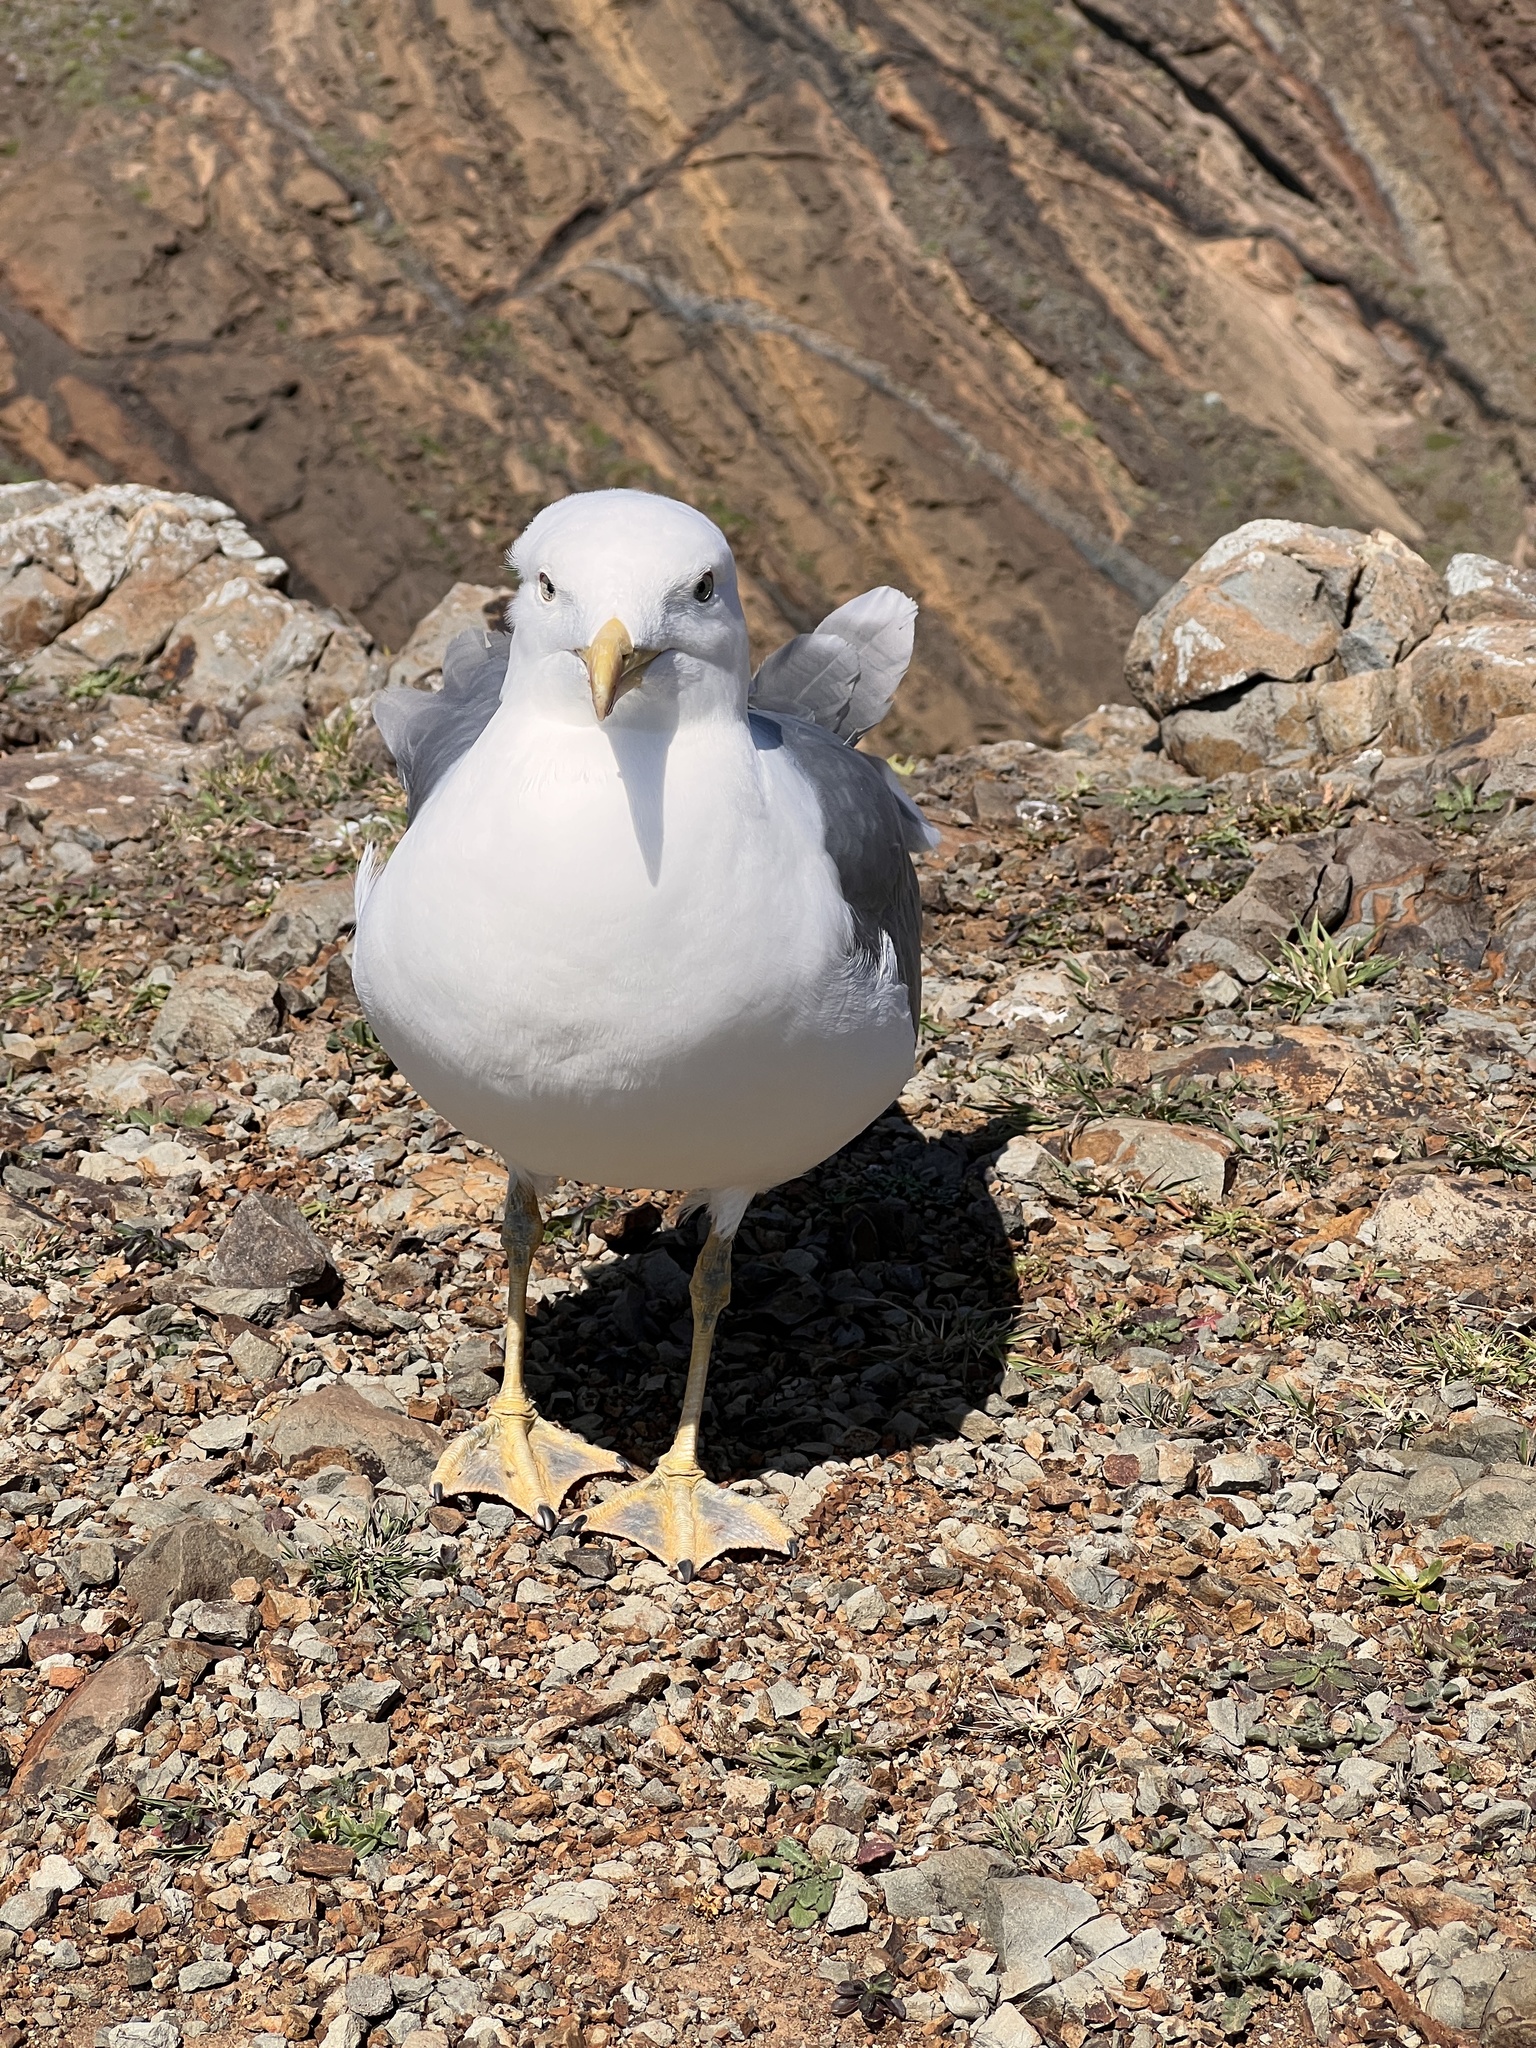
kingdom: Animalia
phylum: Chordata
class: Aves
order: Charadriiformes
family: Laridae
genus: Larus
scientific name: Larus michahellis
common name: Yellow-legged gull
